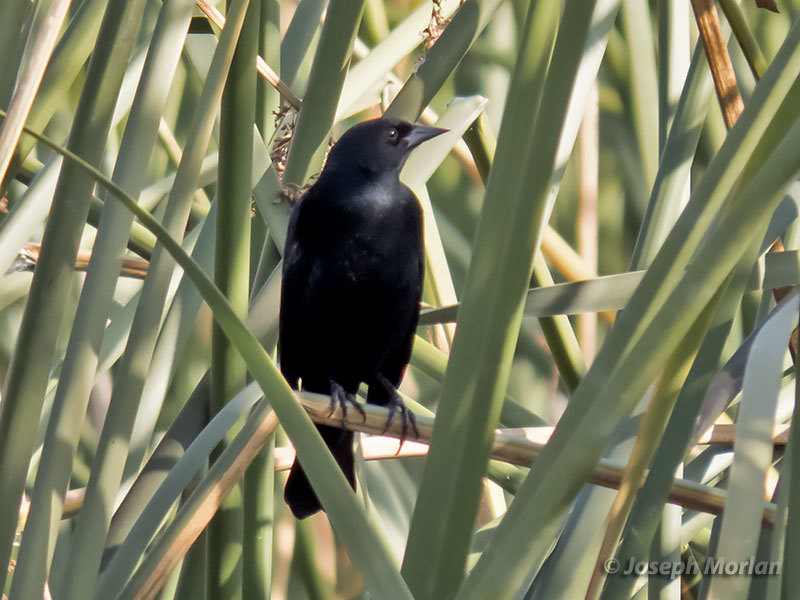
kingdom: Animalia
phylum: Chordata
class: Aves
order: Passeriformes
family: Icteridae
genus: Agelaius
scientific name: Agelaius phoeniceus
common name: Red-winged blackbird
